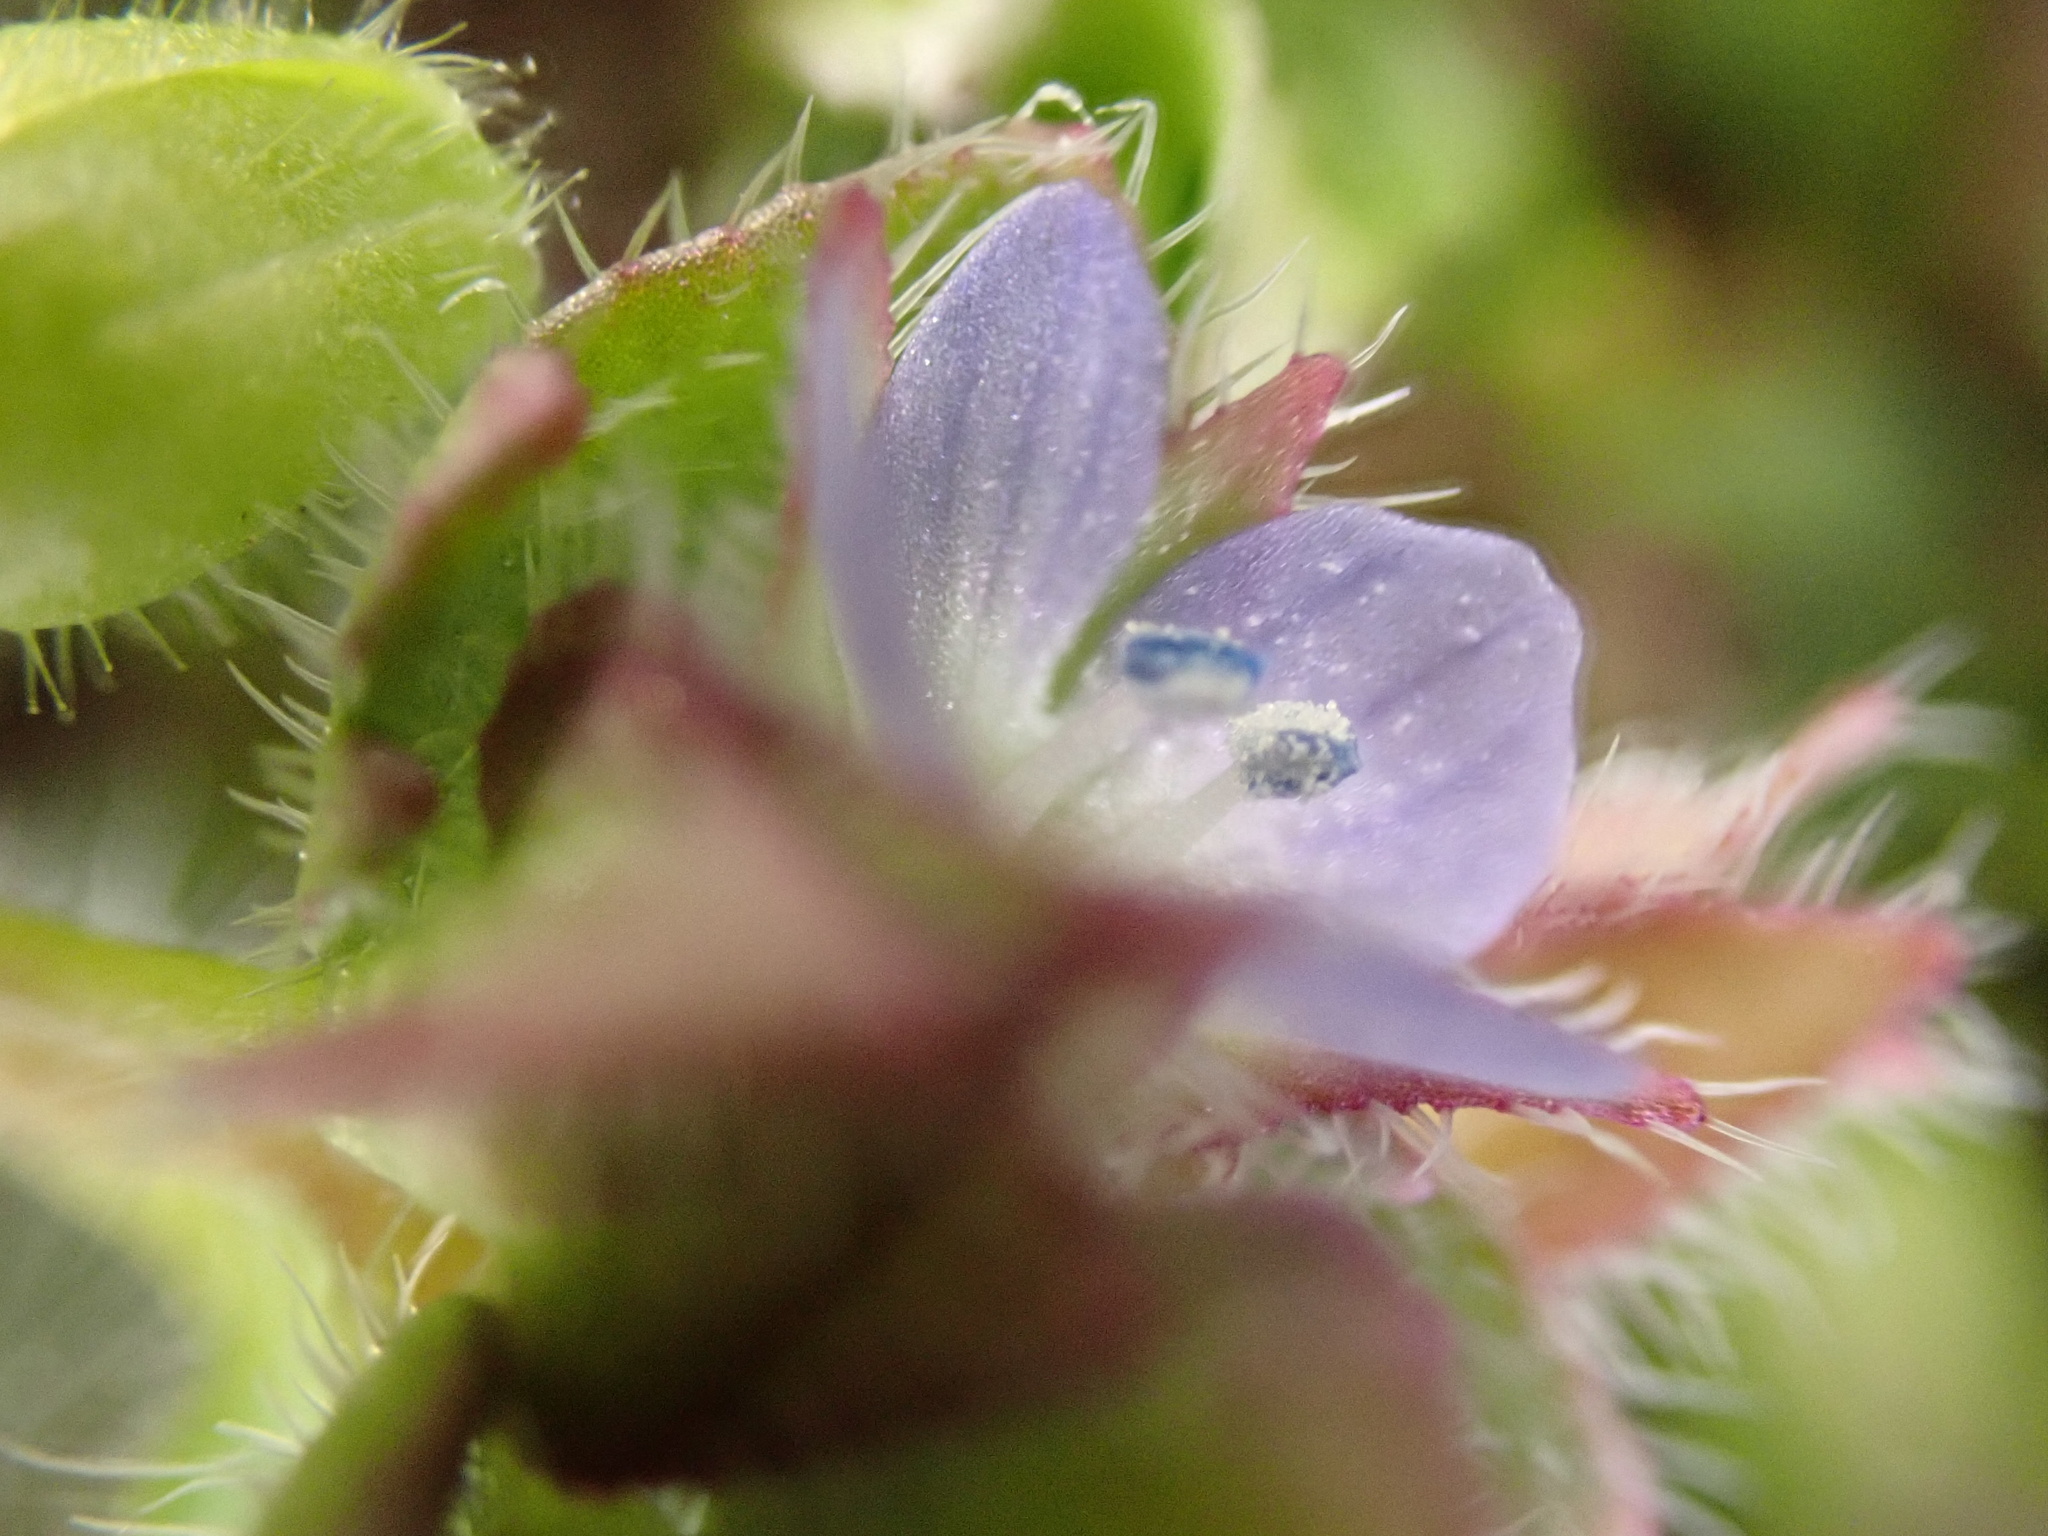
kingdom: Plantae
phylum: Tracheophyta
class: Magnoliopsida
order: Lamiales
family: Plantaginaceae
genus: Veronica
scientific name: Veronica hederifolia
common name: Ivy-leaved speedwell
